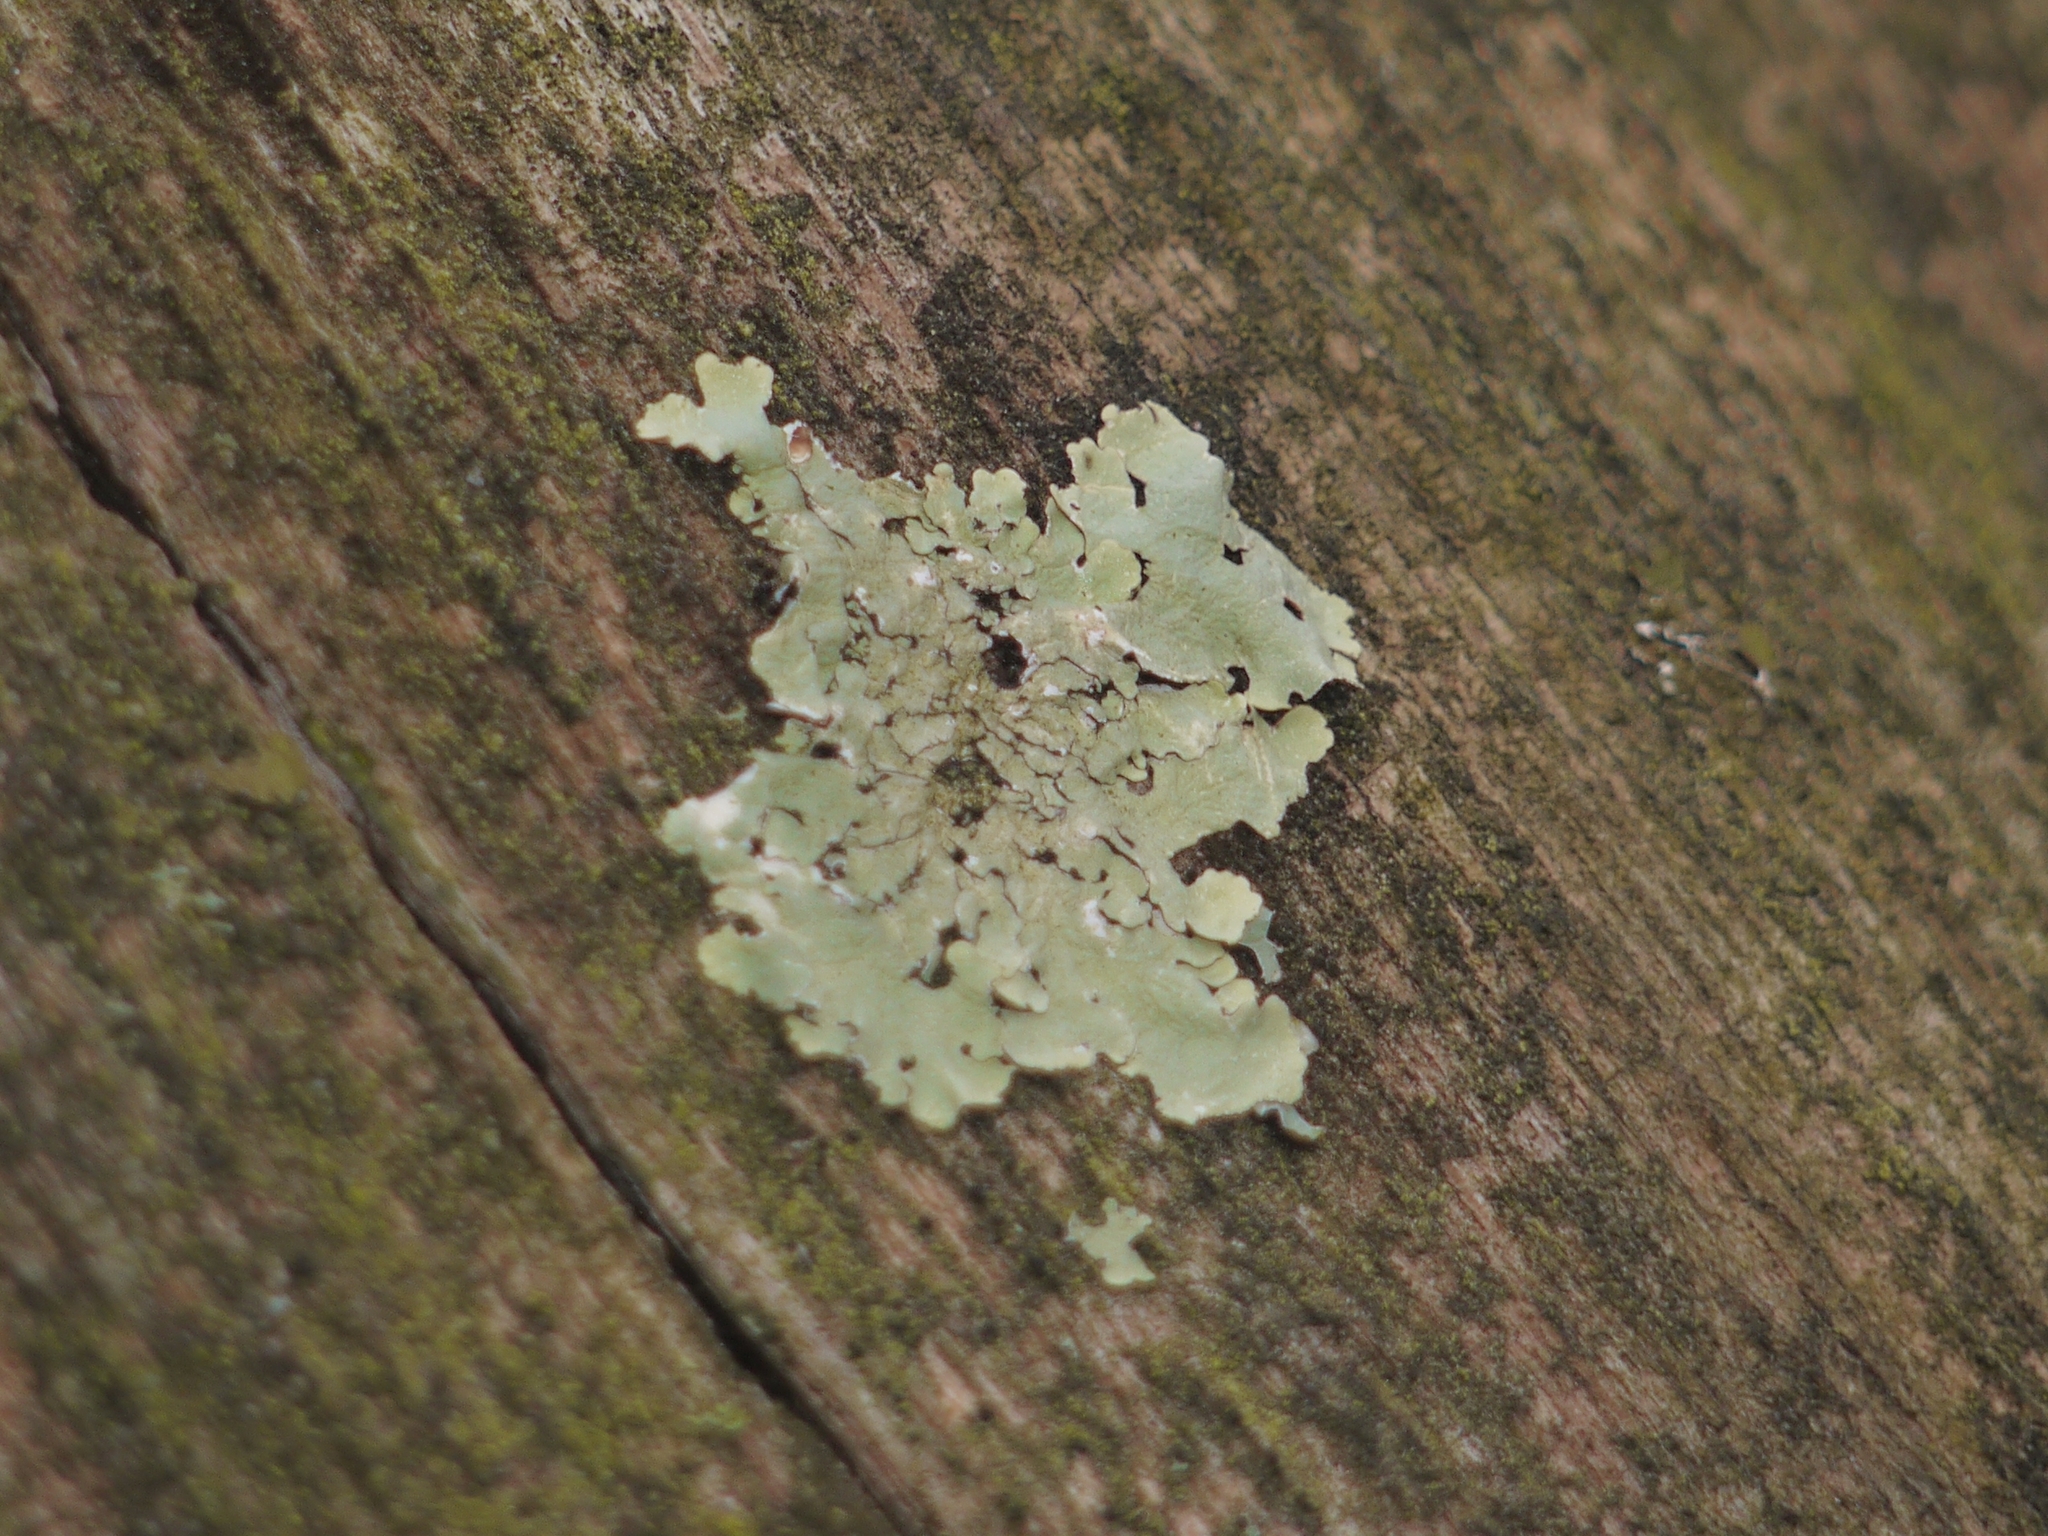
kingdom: Fungi
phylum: Ascomycota
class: Lecanoromycetes
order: Lecanorales
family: Parmeliaceae
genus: Flavoparmelia
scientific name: Flavoparmelia caperata
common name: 40-mile per hour lichen
